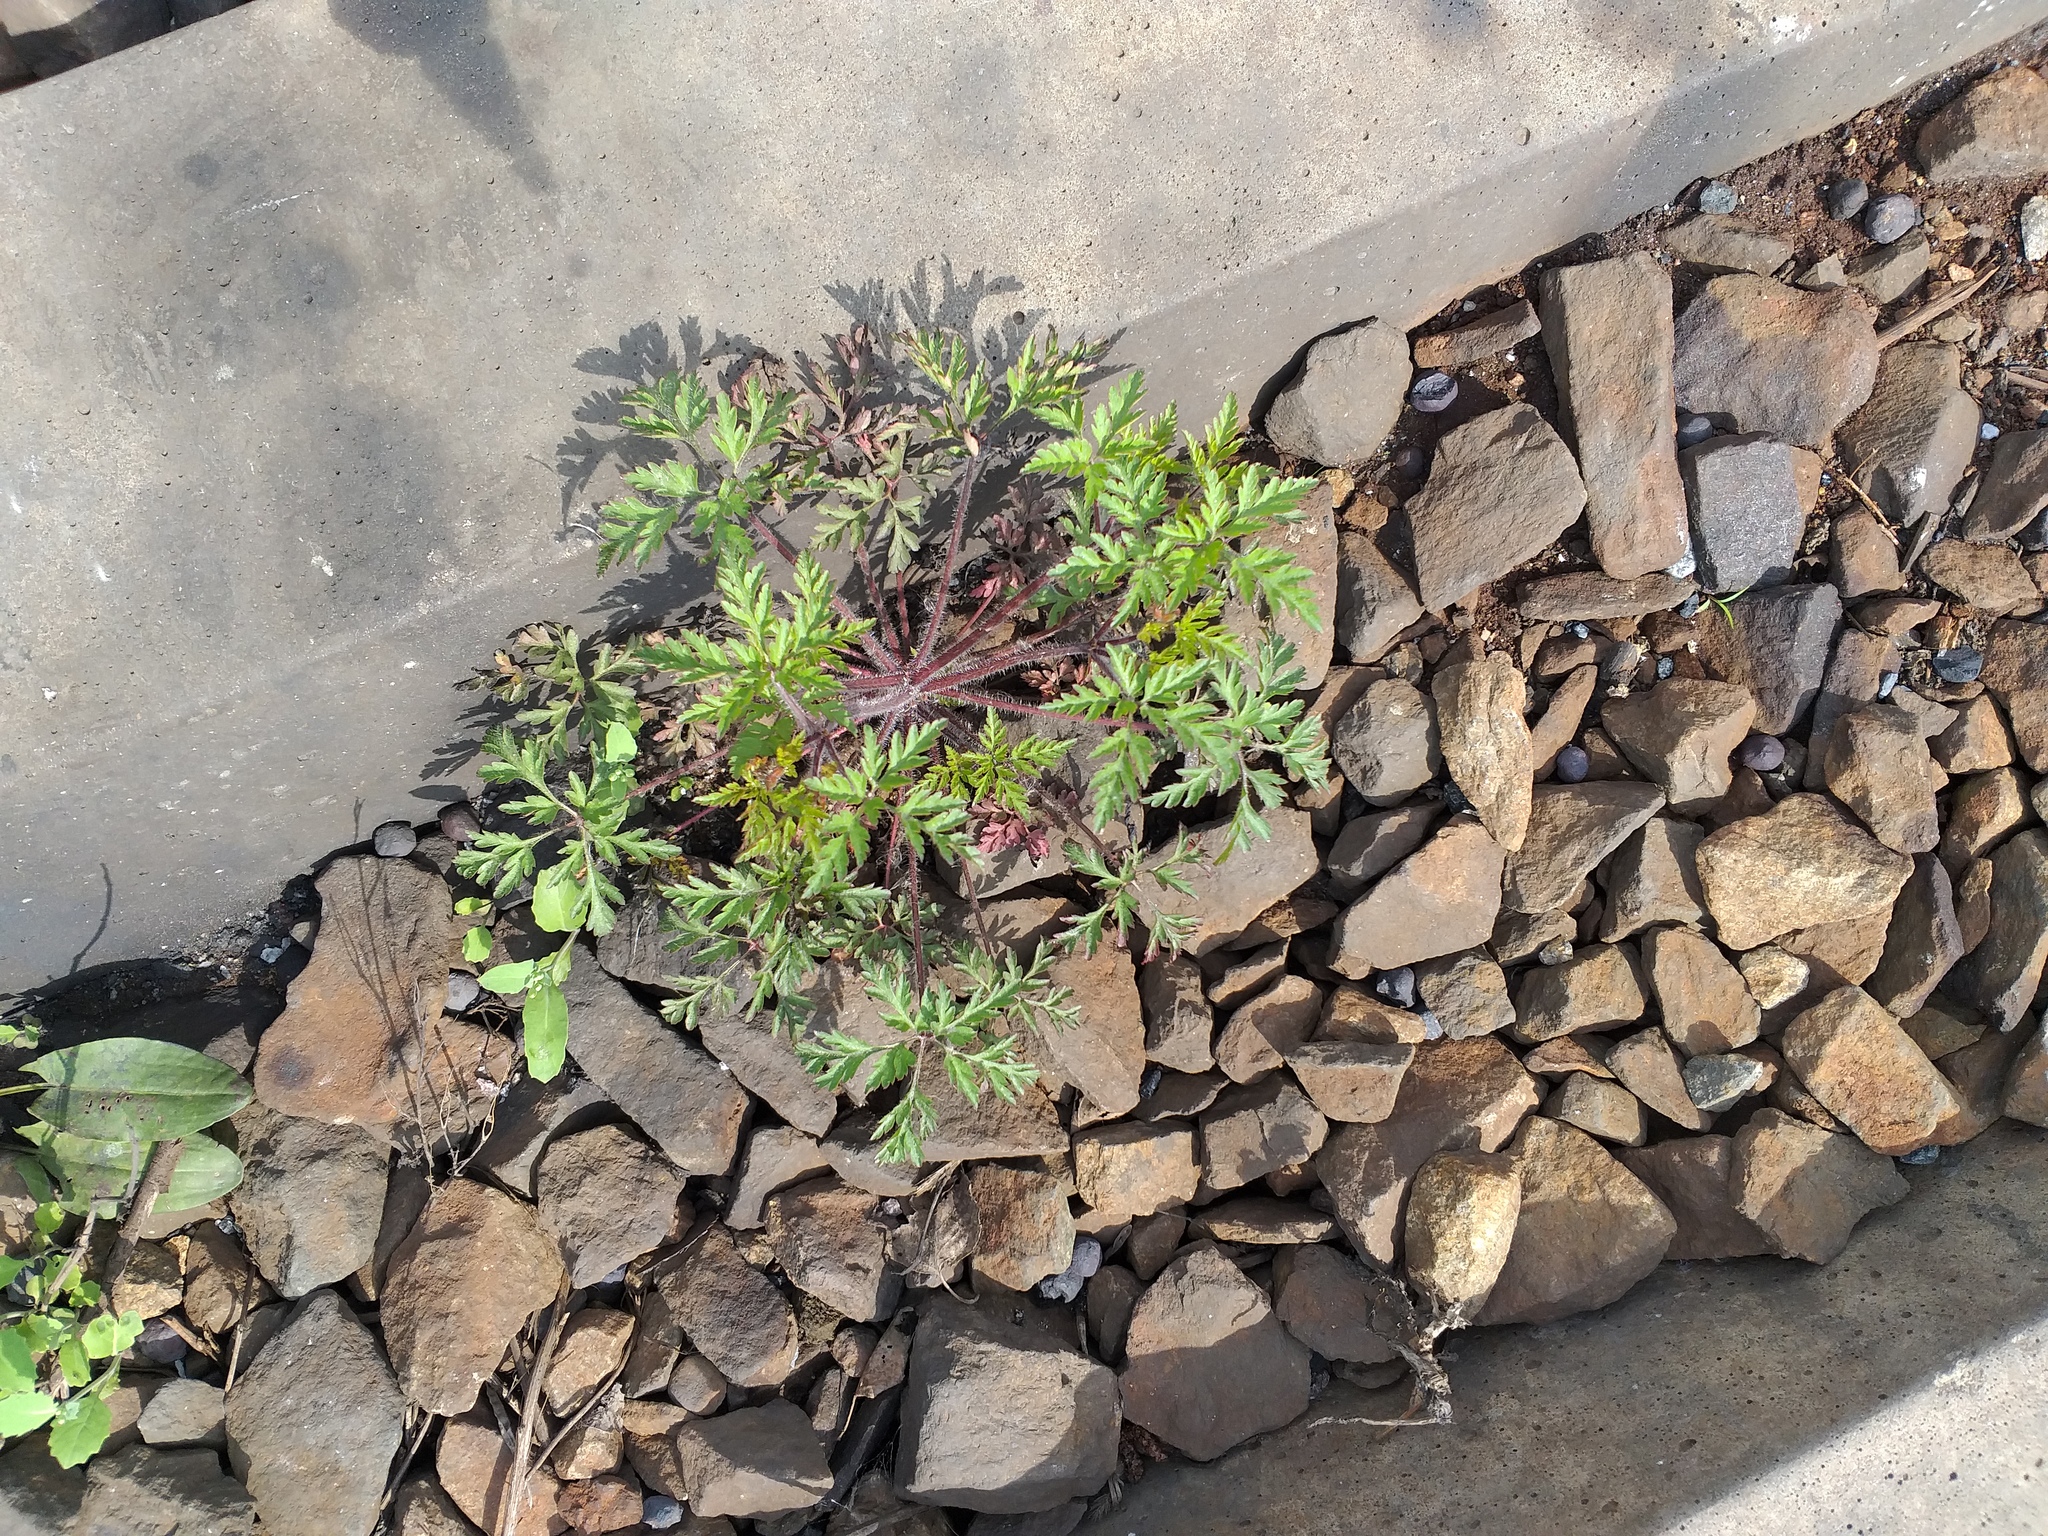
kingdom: Plantae
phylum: Tracheophyta
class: Magnoliopsida
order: Geraniales
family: Geraniaceae
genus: Geranium
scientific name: Geranium robertianum
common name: Herb-robert
